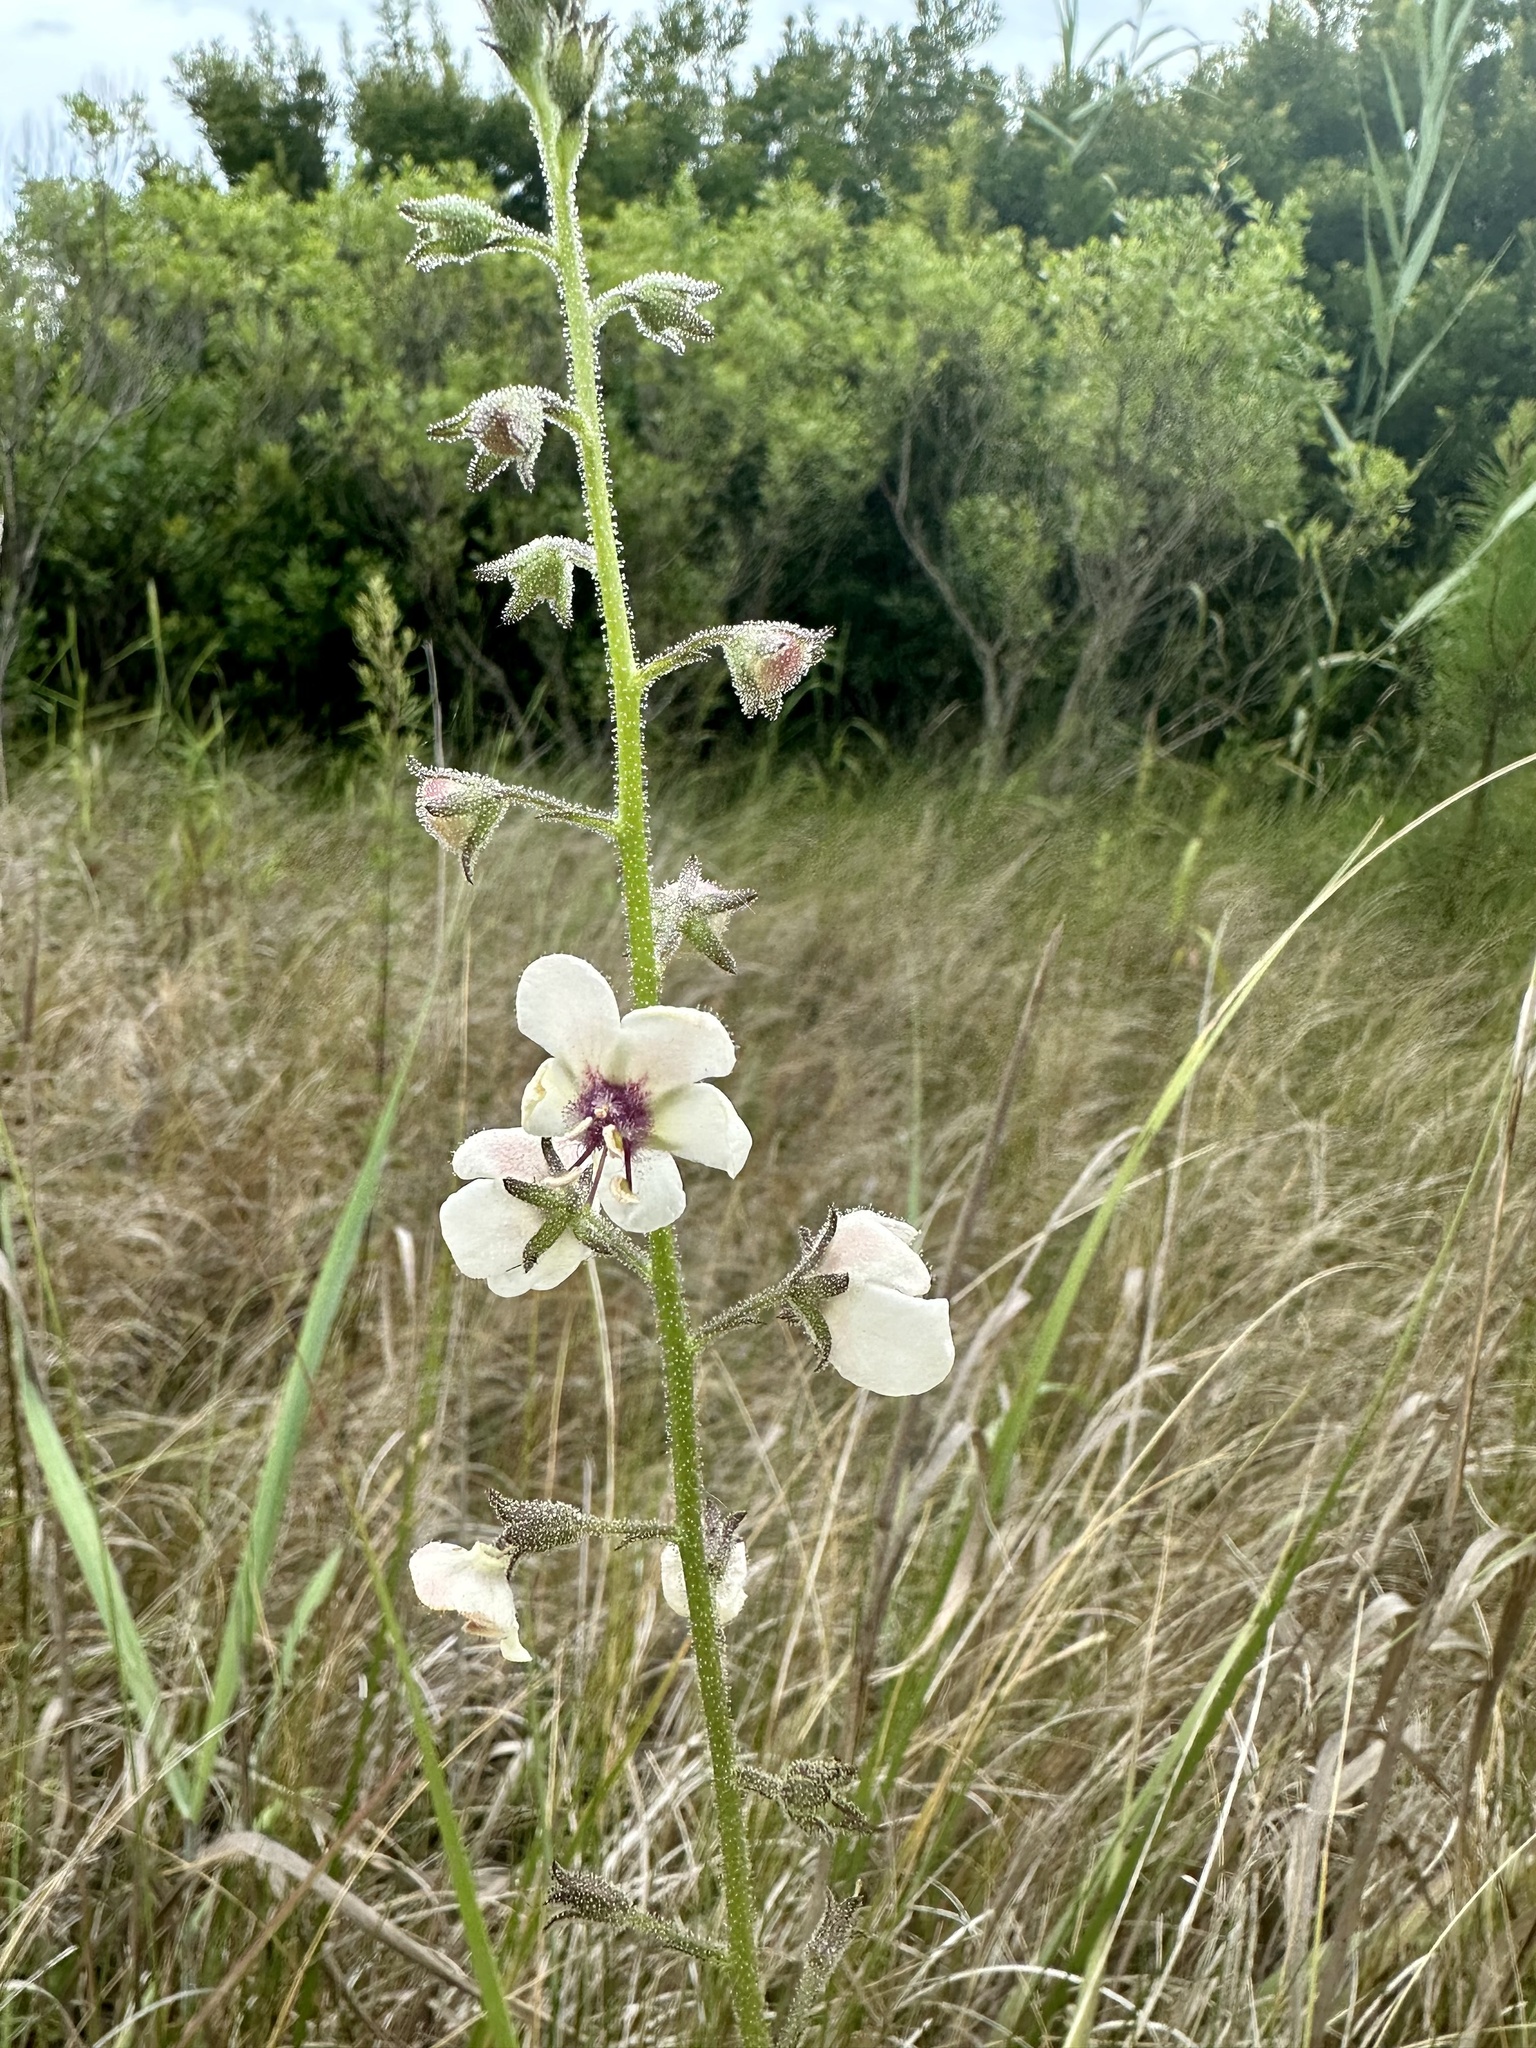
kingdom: Plantae
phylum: Tracheophyta
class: Magnoliopsida
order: Lamiales
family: Scrophulariaceae
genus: Verbascum
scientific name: Verbascum blattaria
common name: Moth mullein
